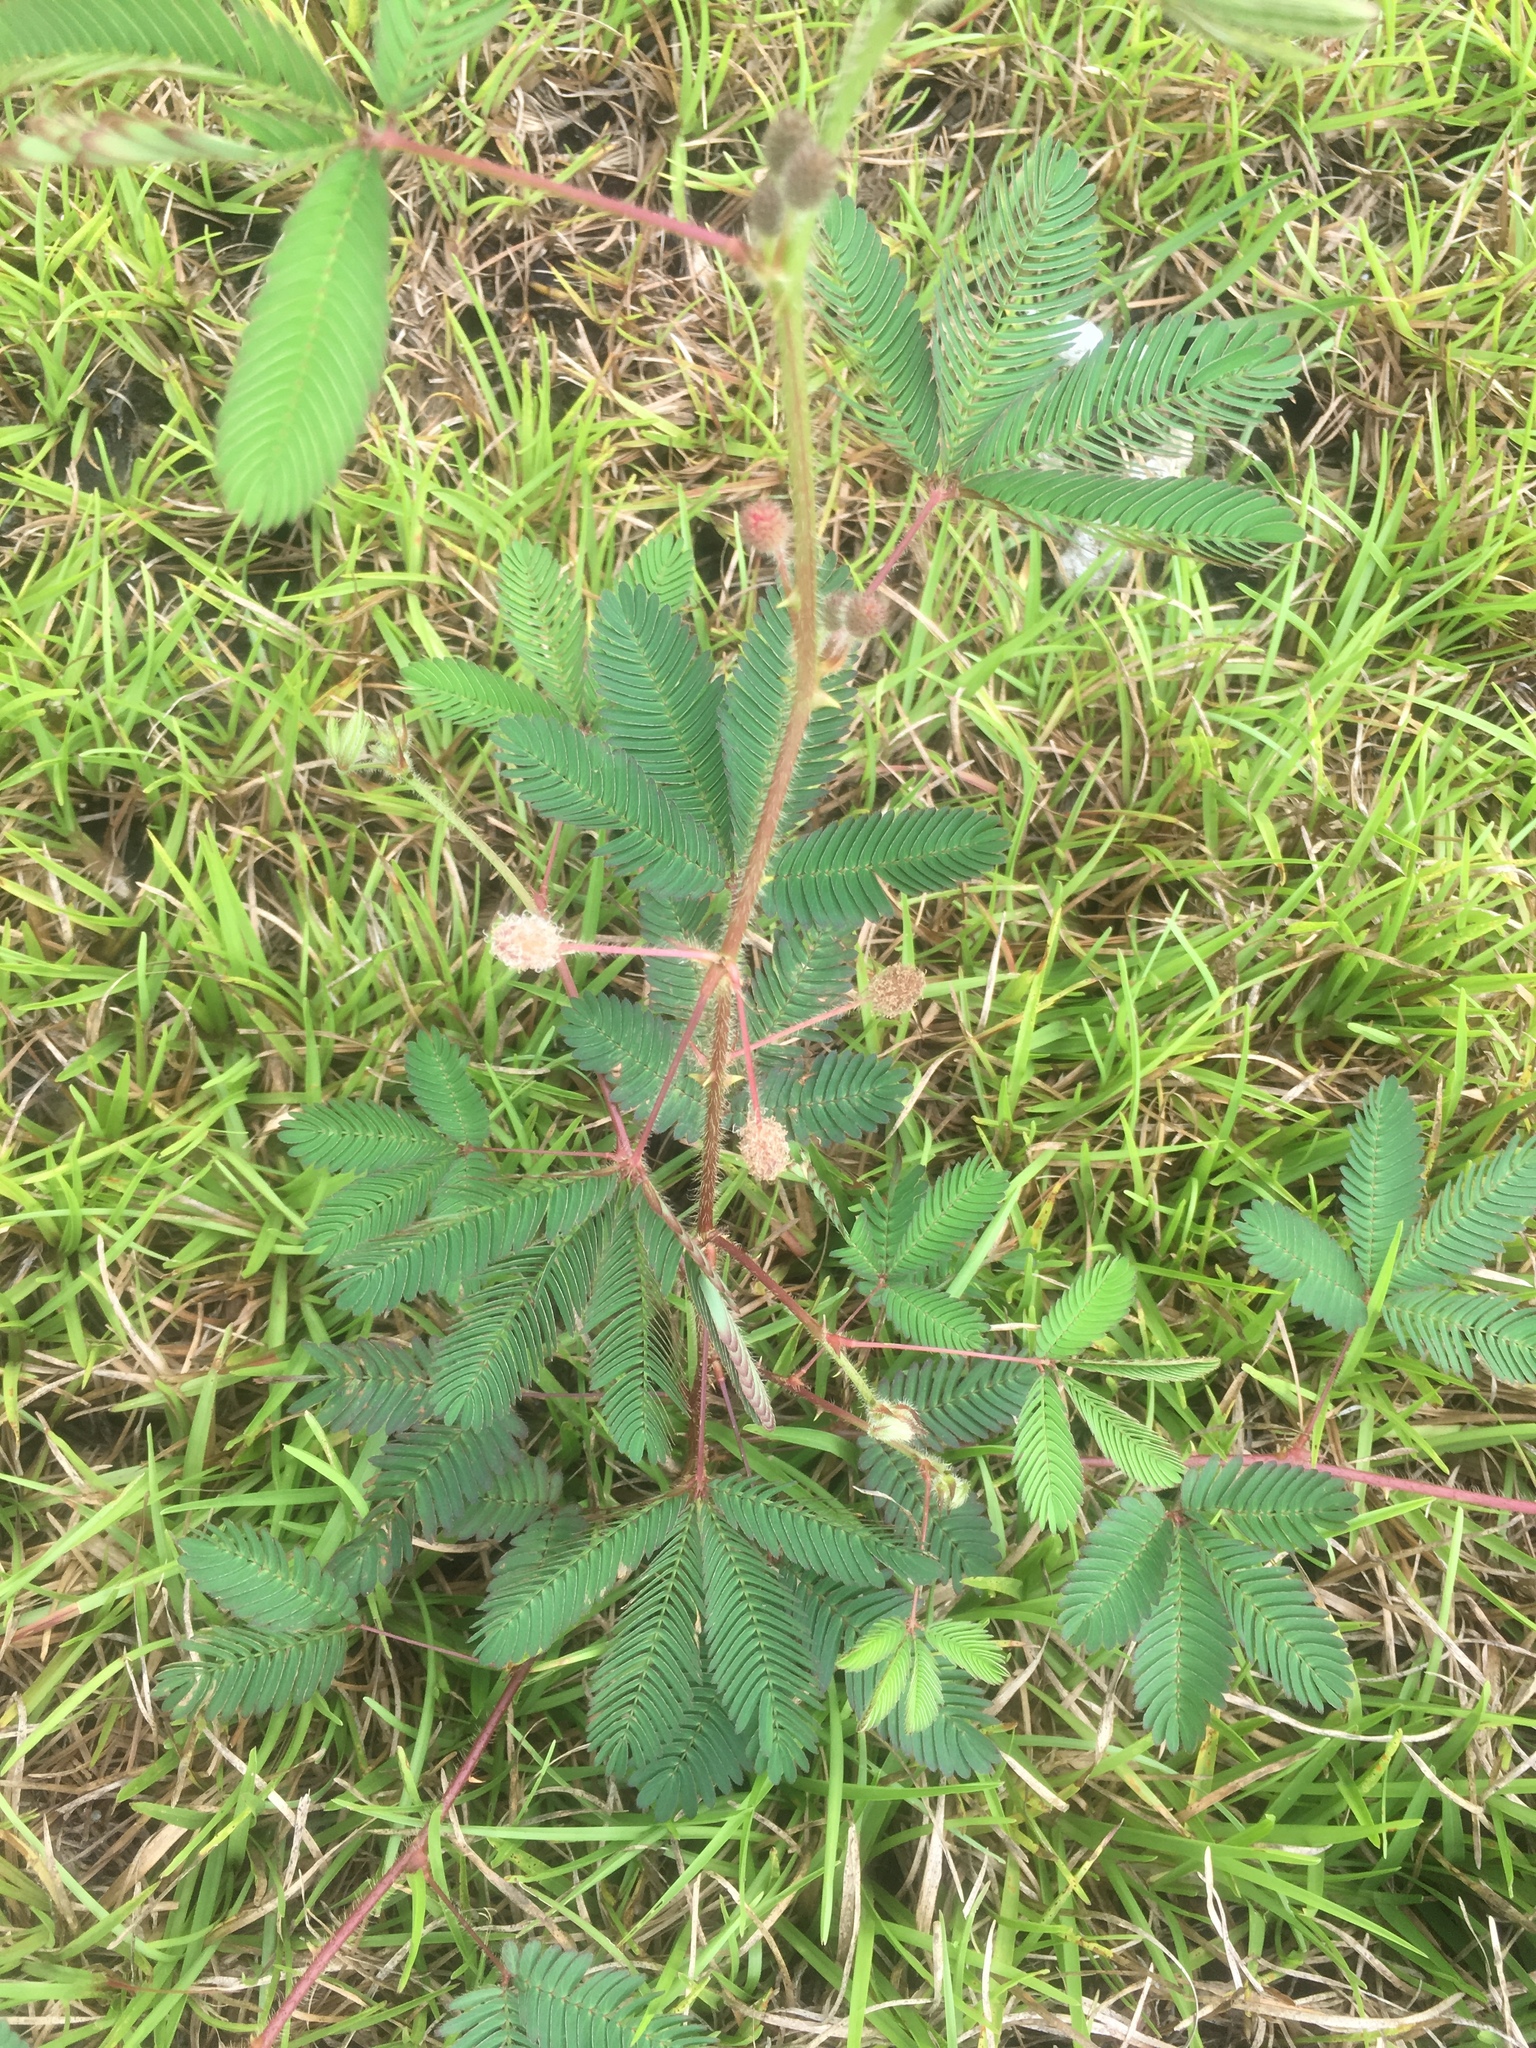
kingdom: Plantae
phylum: Tracheophyta
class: Magnoliopsida
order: Fabales
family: Fabaceae
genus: Mimosa
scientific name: Mimosa pudica
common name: Sensitive plant
